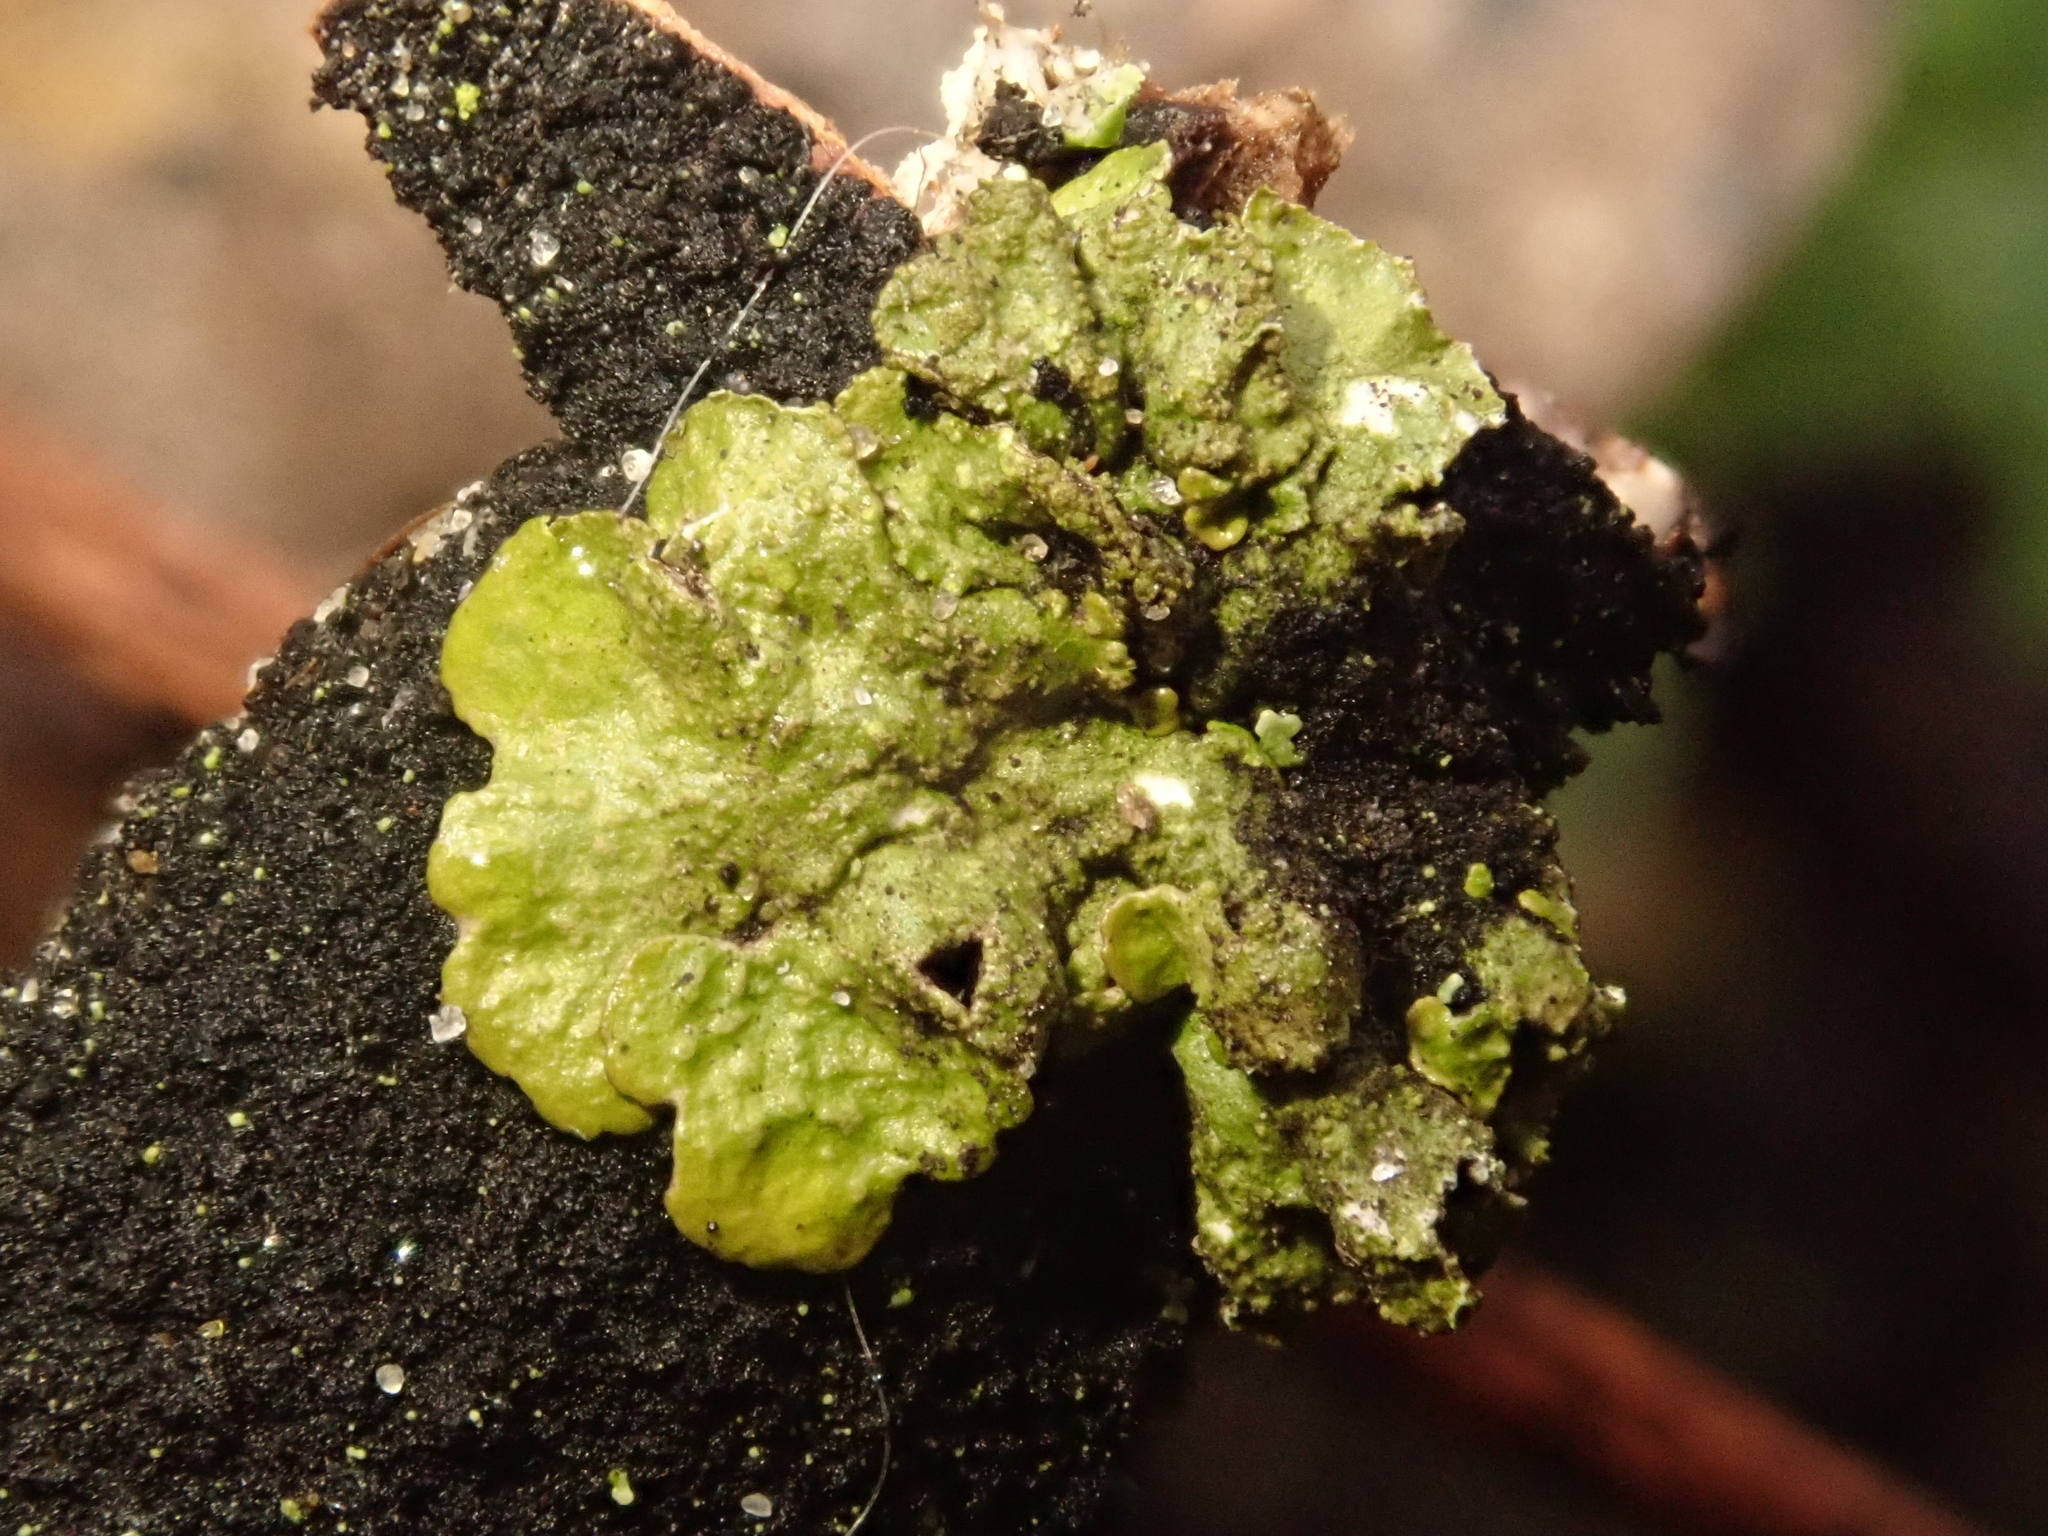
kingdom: Fungi
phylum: Ascomycota
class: Lecanoromycetes
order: Lecanorales
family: Parmeliaceae
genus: Melanelixia
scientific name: Melanelixia subaurifera
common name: Abraded camouflage lichen
